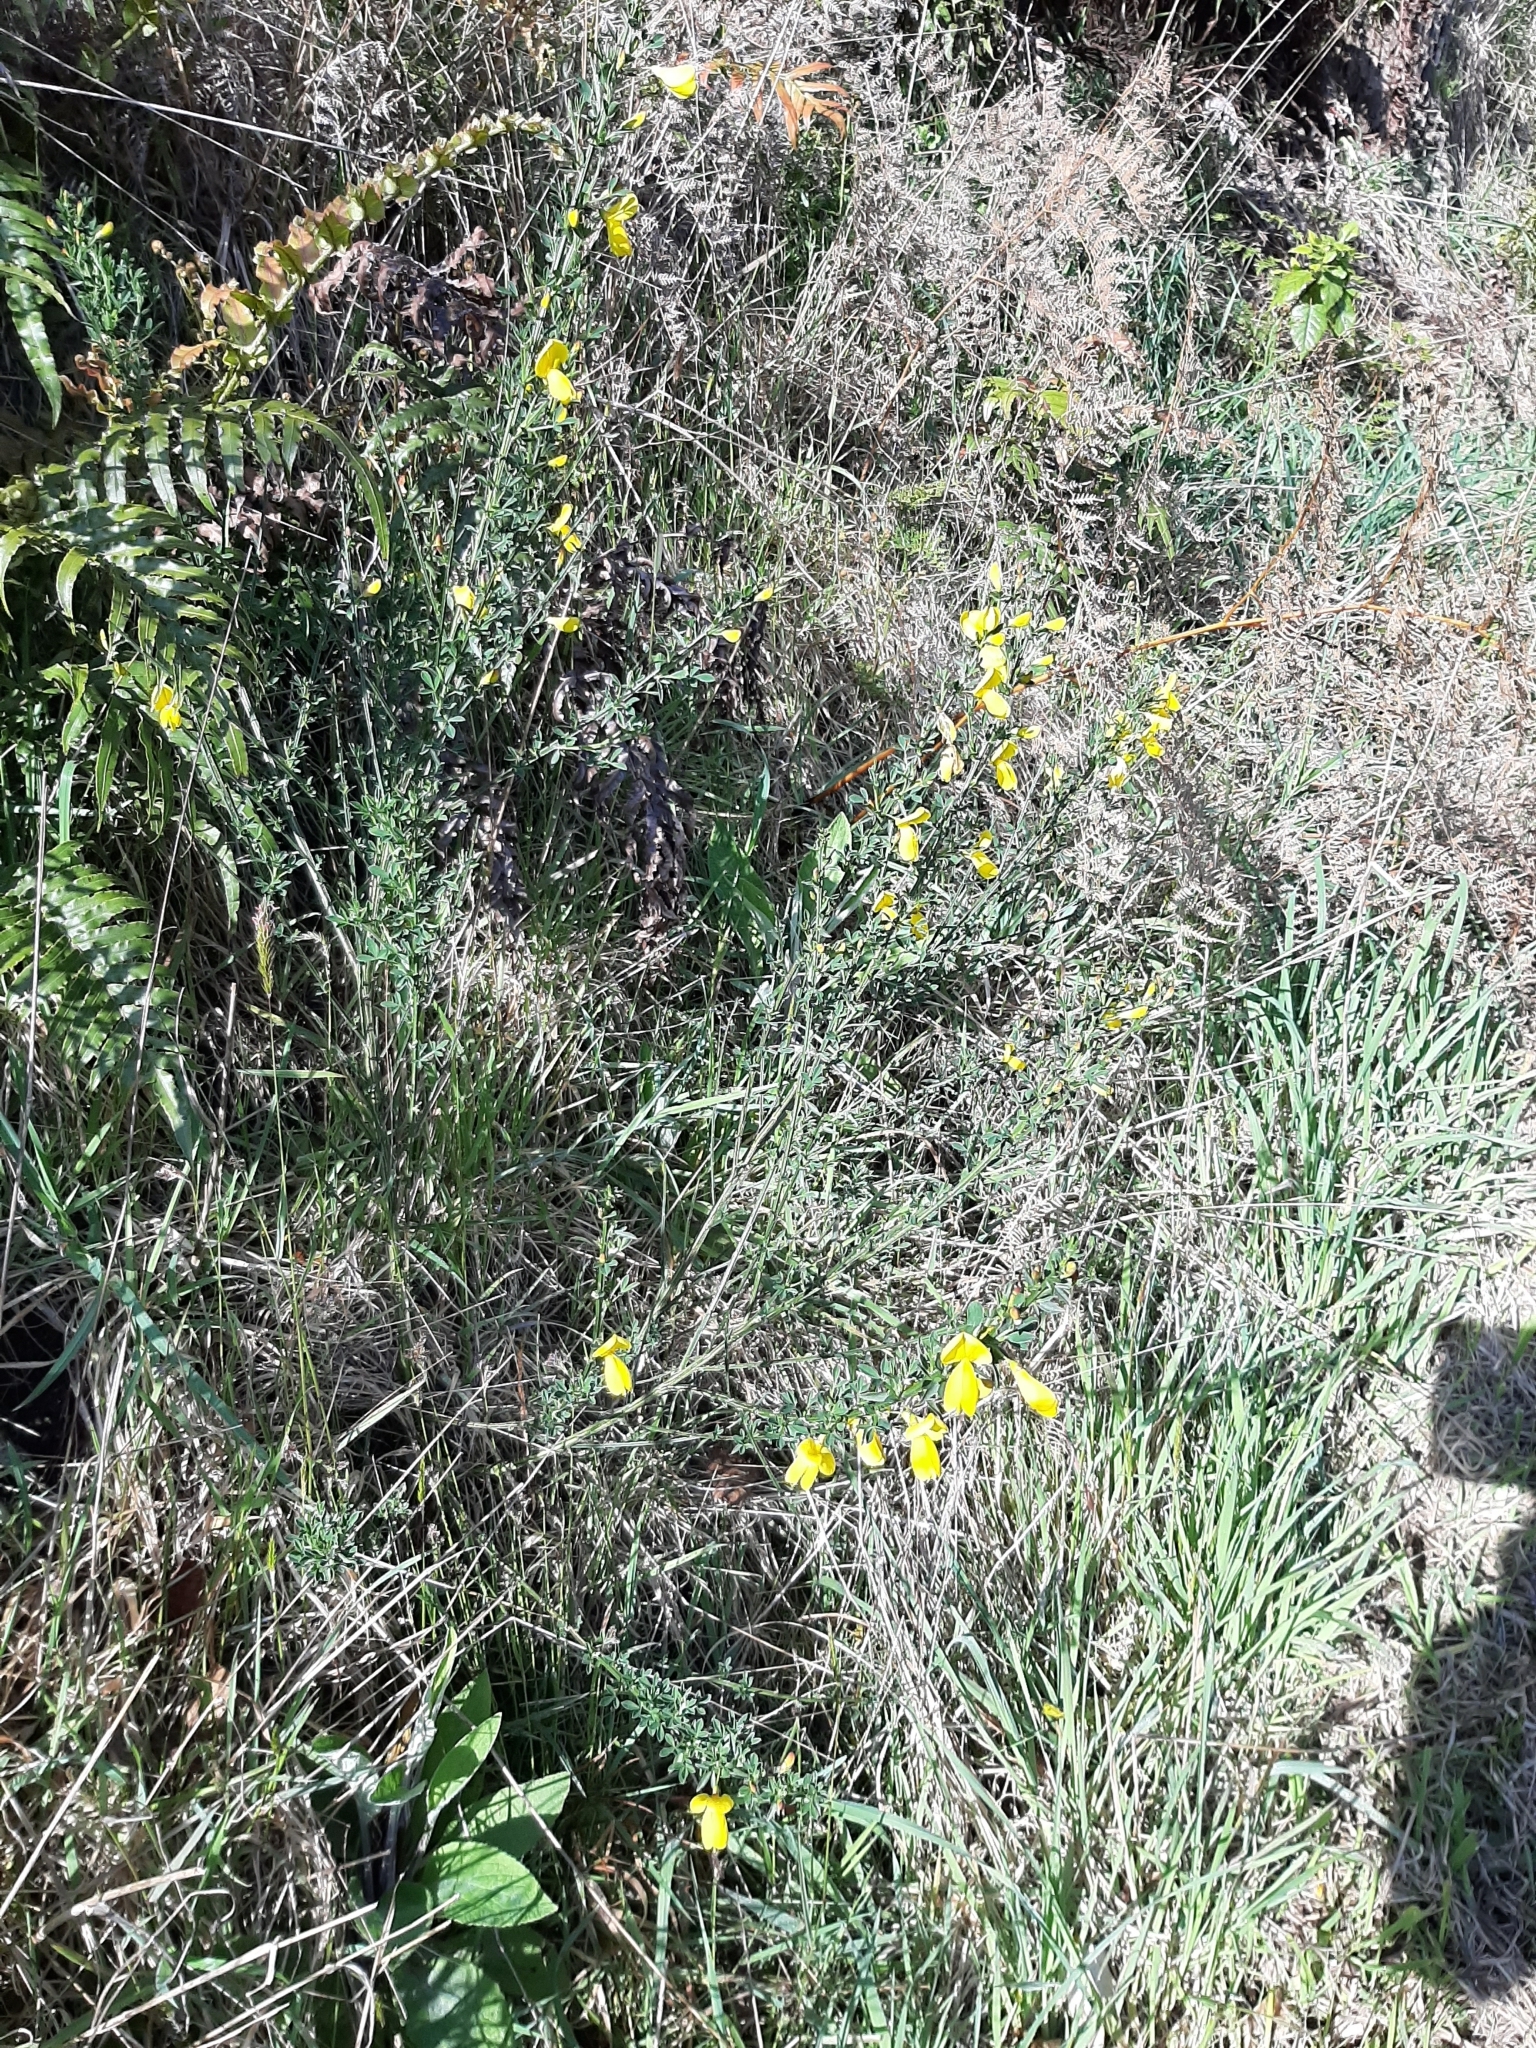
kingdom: Plantae
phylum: Tracheophyta
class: Magnoliopsida
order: Fabales
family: Fabaceae
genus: Cytisus
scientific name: Cytisus scoparius
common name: Scotch broom
